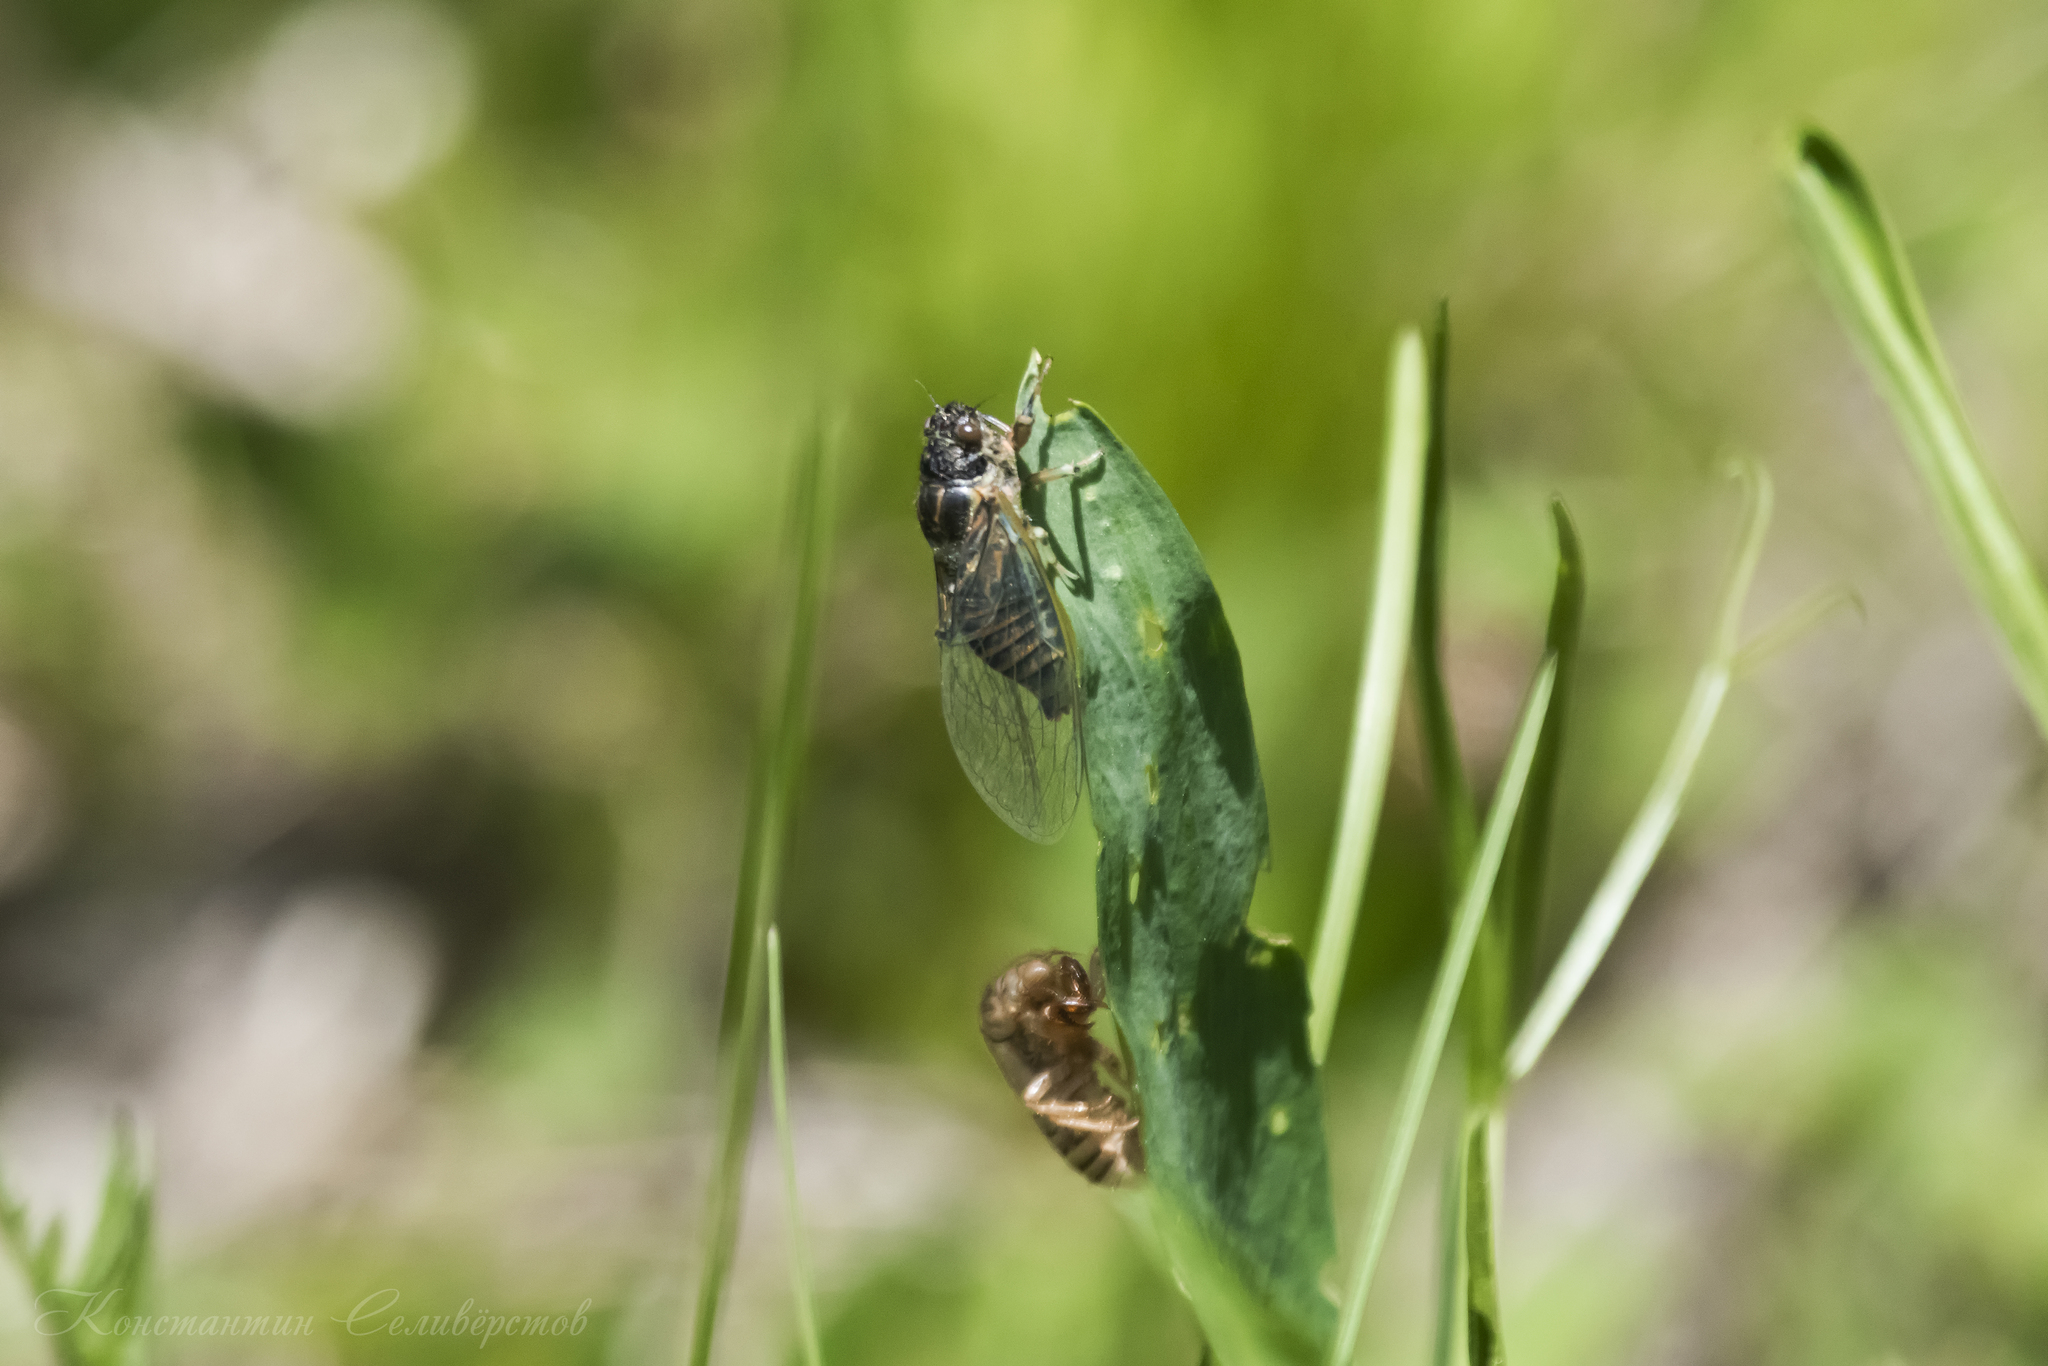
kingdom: Animalia
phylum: Arthropoda
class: Insecta
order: Hemiptera
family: Cicadidae
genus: Cicadetta
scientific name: Cicadetta montana
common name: New forest cicada
